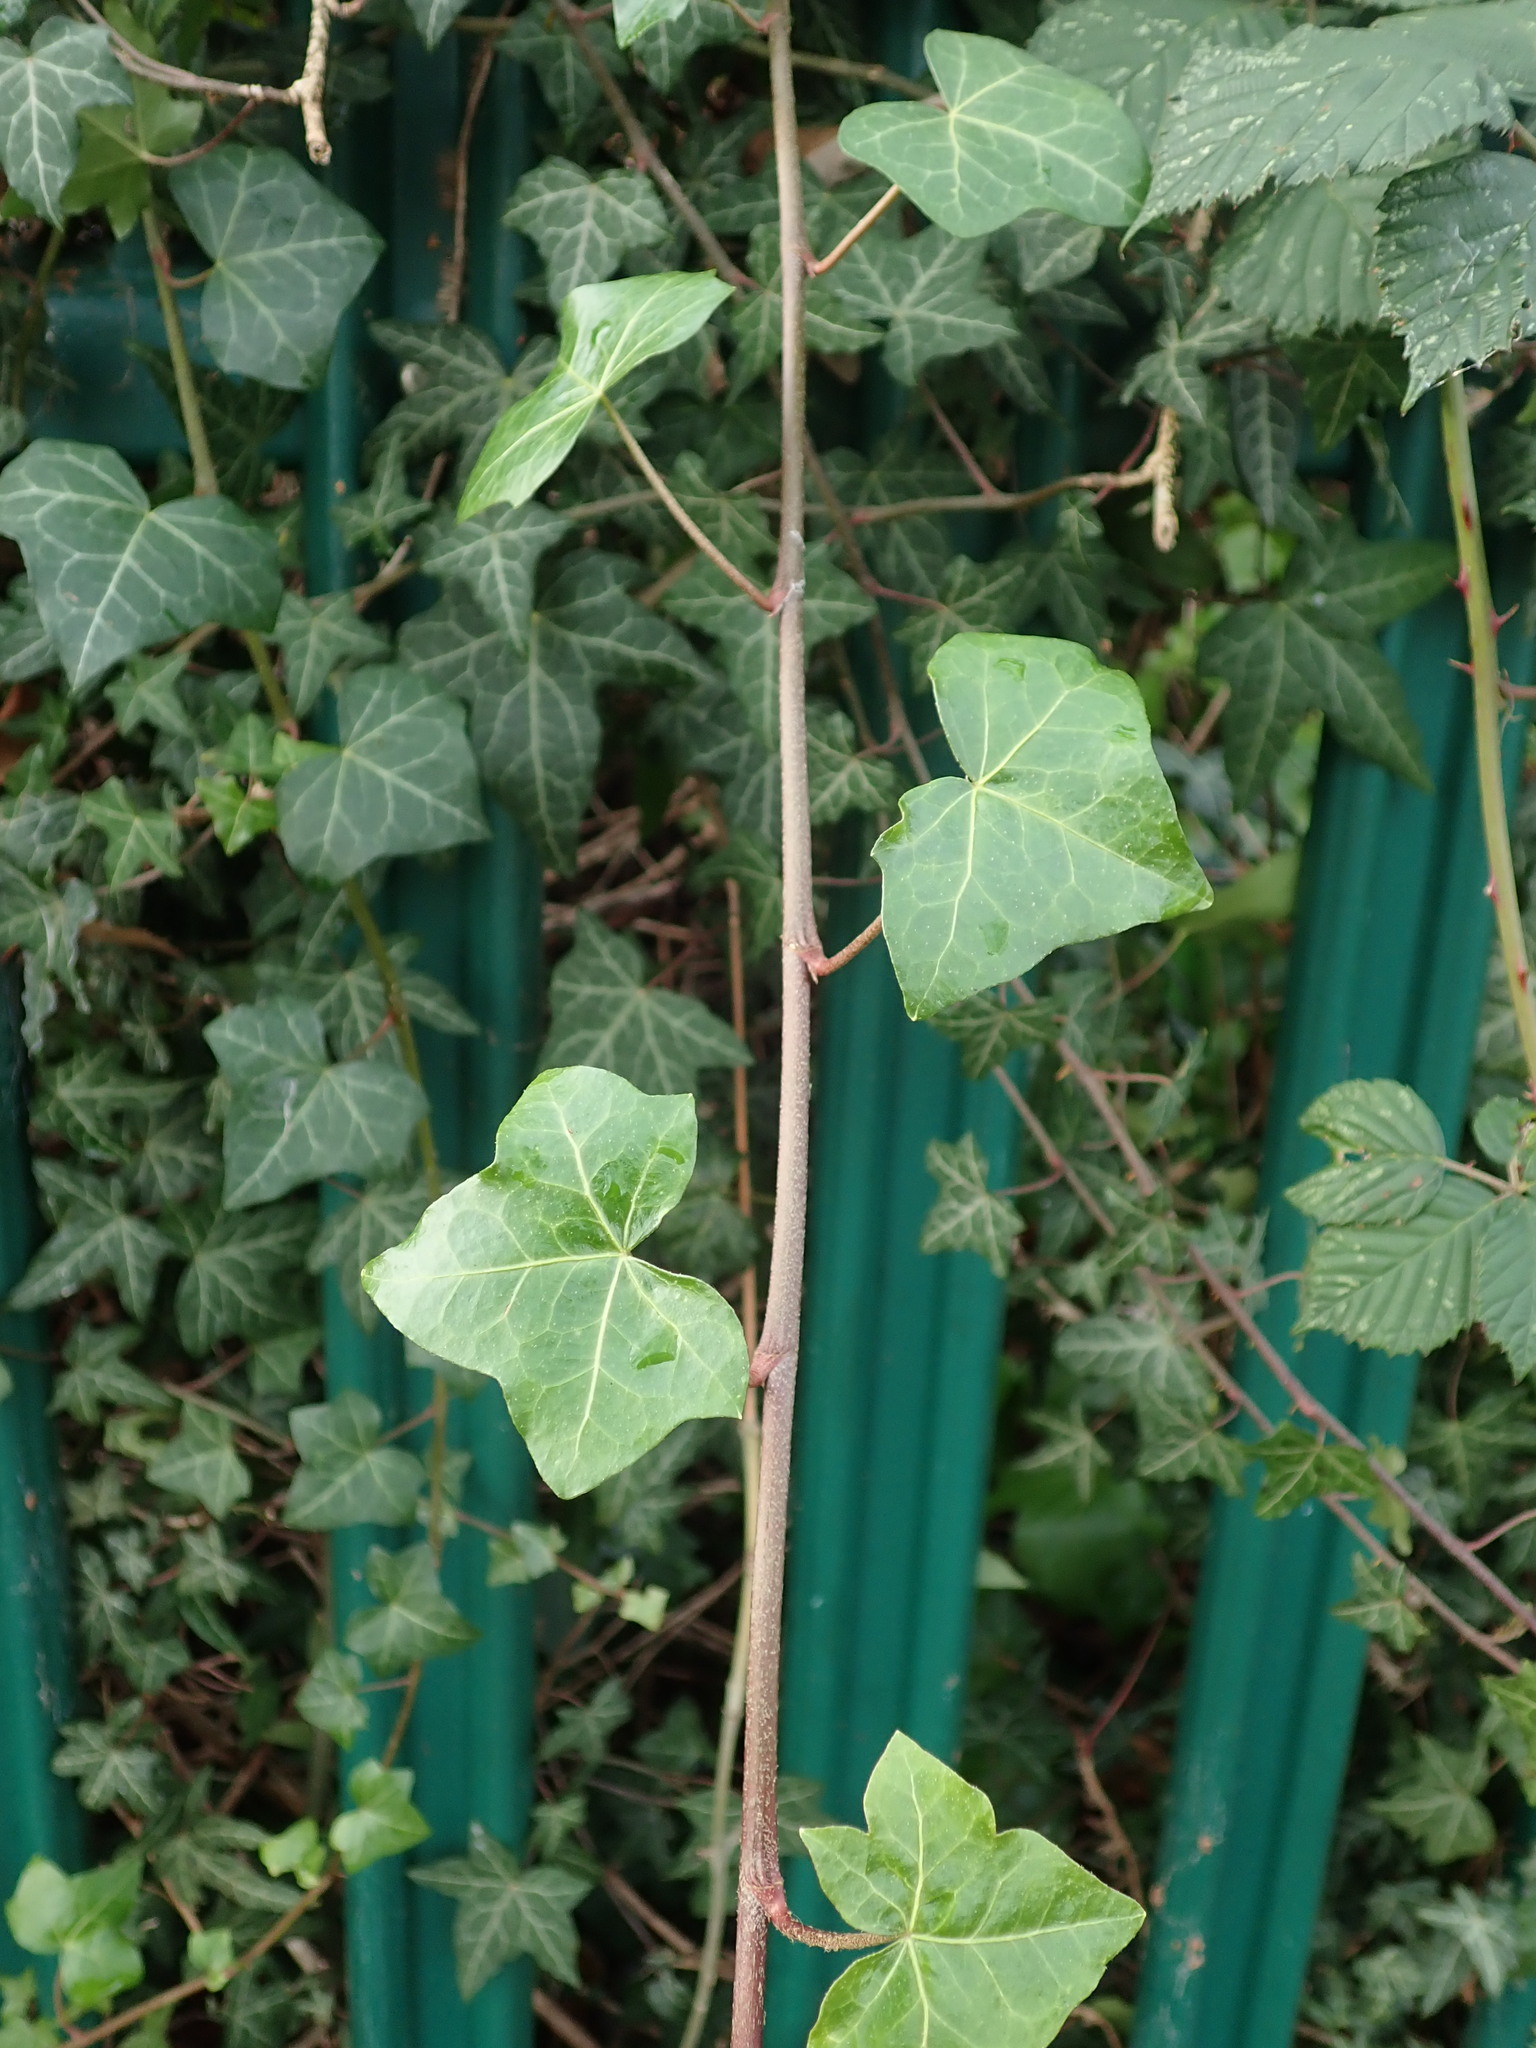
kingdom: Plantae
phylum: Tracheophyta
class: Magnoliopsida
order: Apiales
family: Araliaceae
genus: Hedera
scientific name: Hedera helix
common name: Ivy
